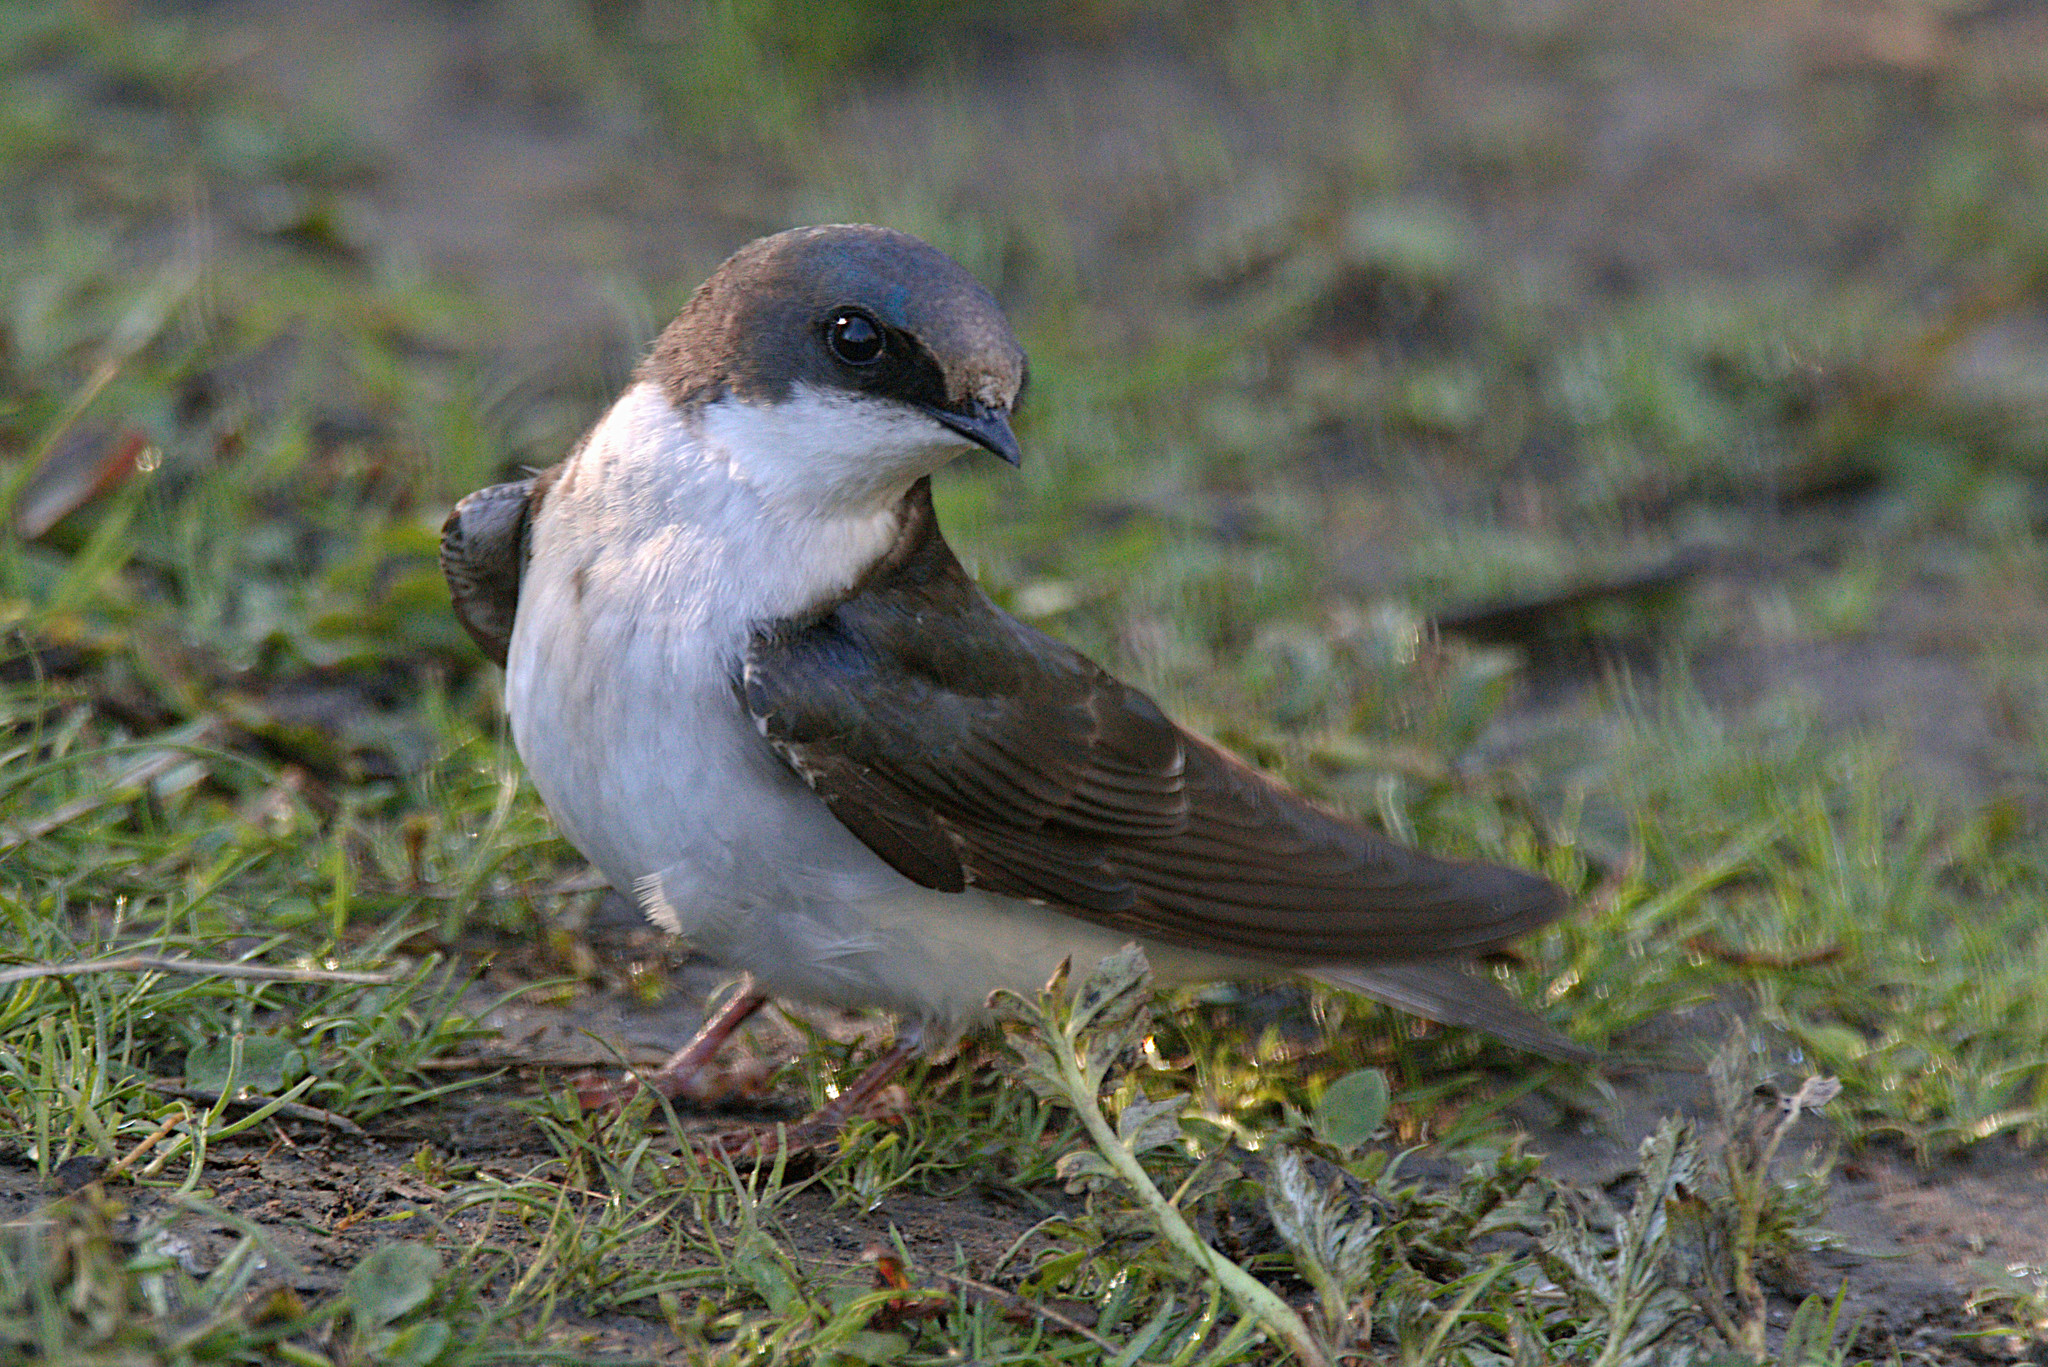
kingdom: Animalia
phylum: Chordata
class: Aves
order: Passeriformes
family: Hirundinidae
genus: Tachycineta
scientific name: Tachycineta bicolor
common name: Tree swallow
